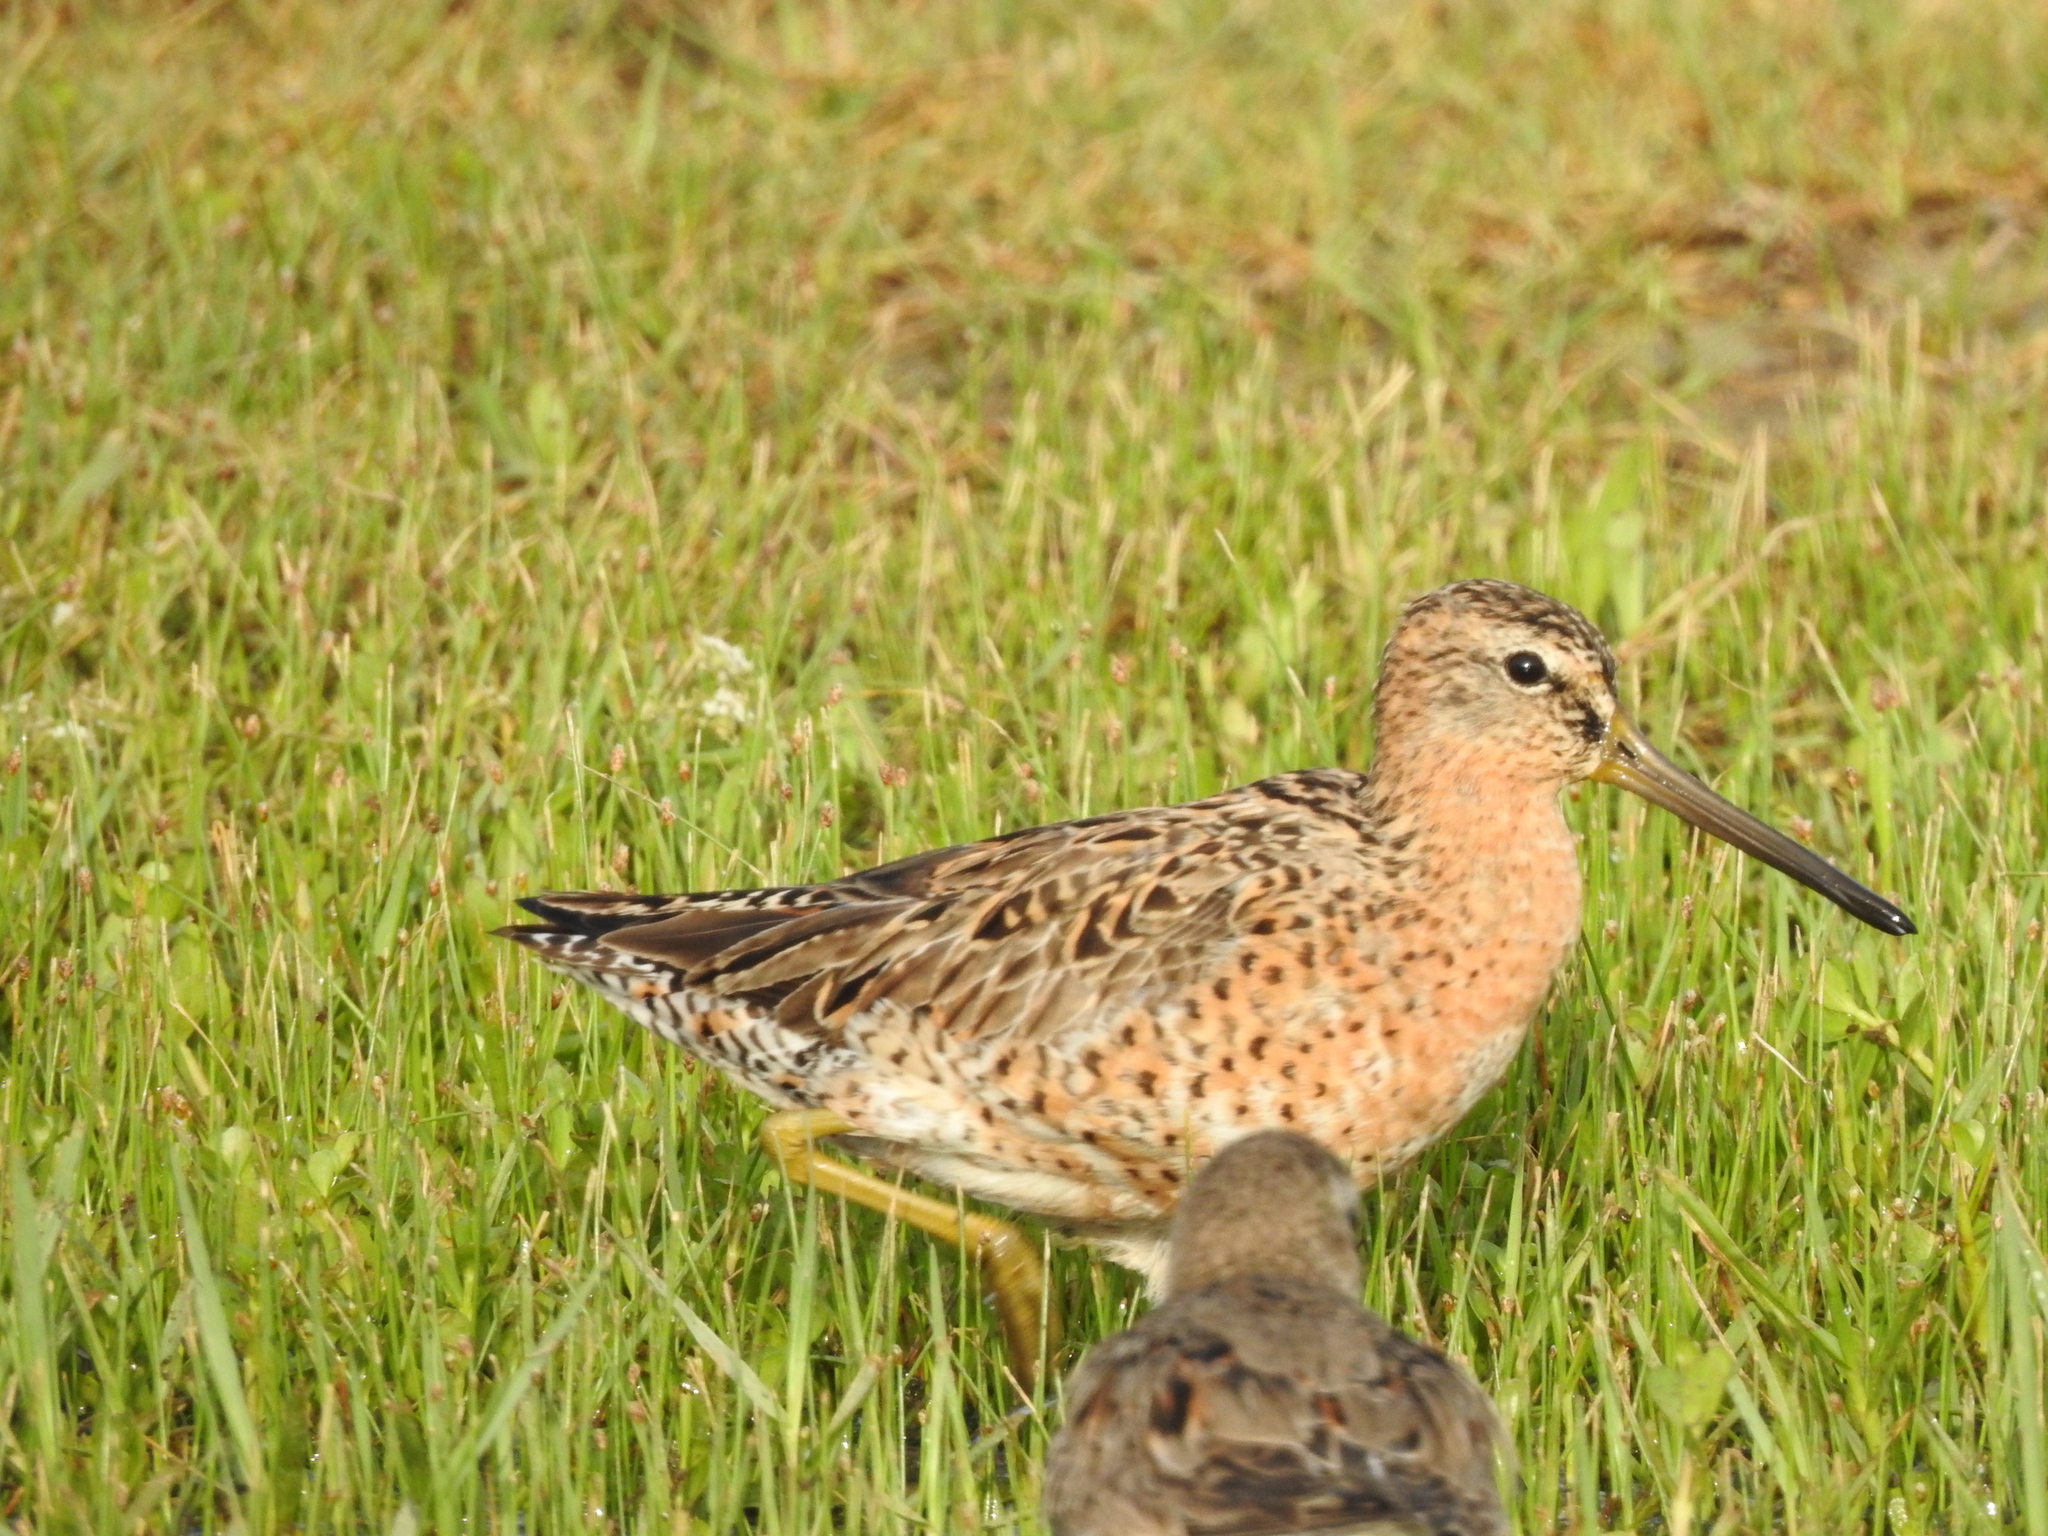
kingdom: Animalia
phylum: Chordata
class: Aves
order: Charadriiformes
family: Scolopacidae
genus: Limnodromus
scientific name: Limnodromus griseus
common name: Short-billed dowitcher
